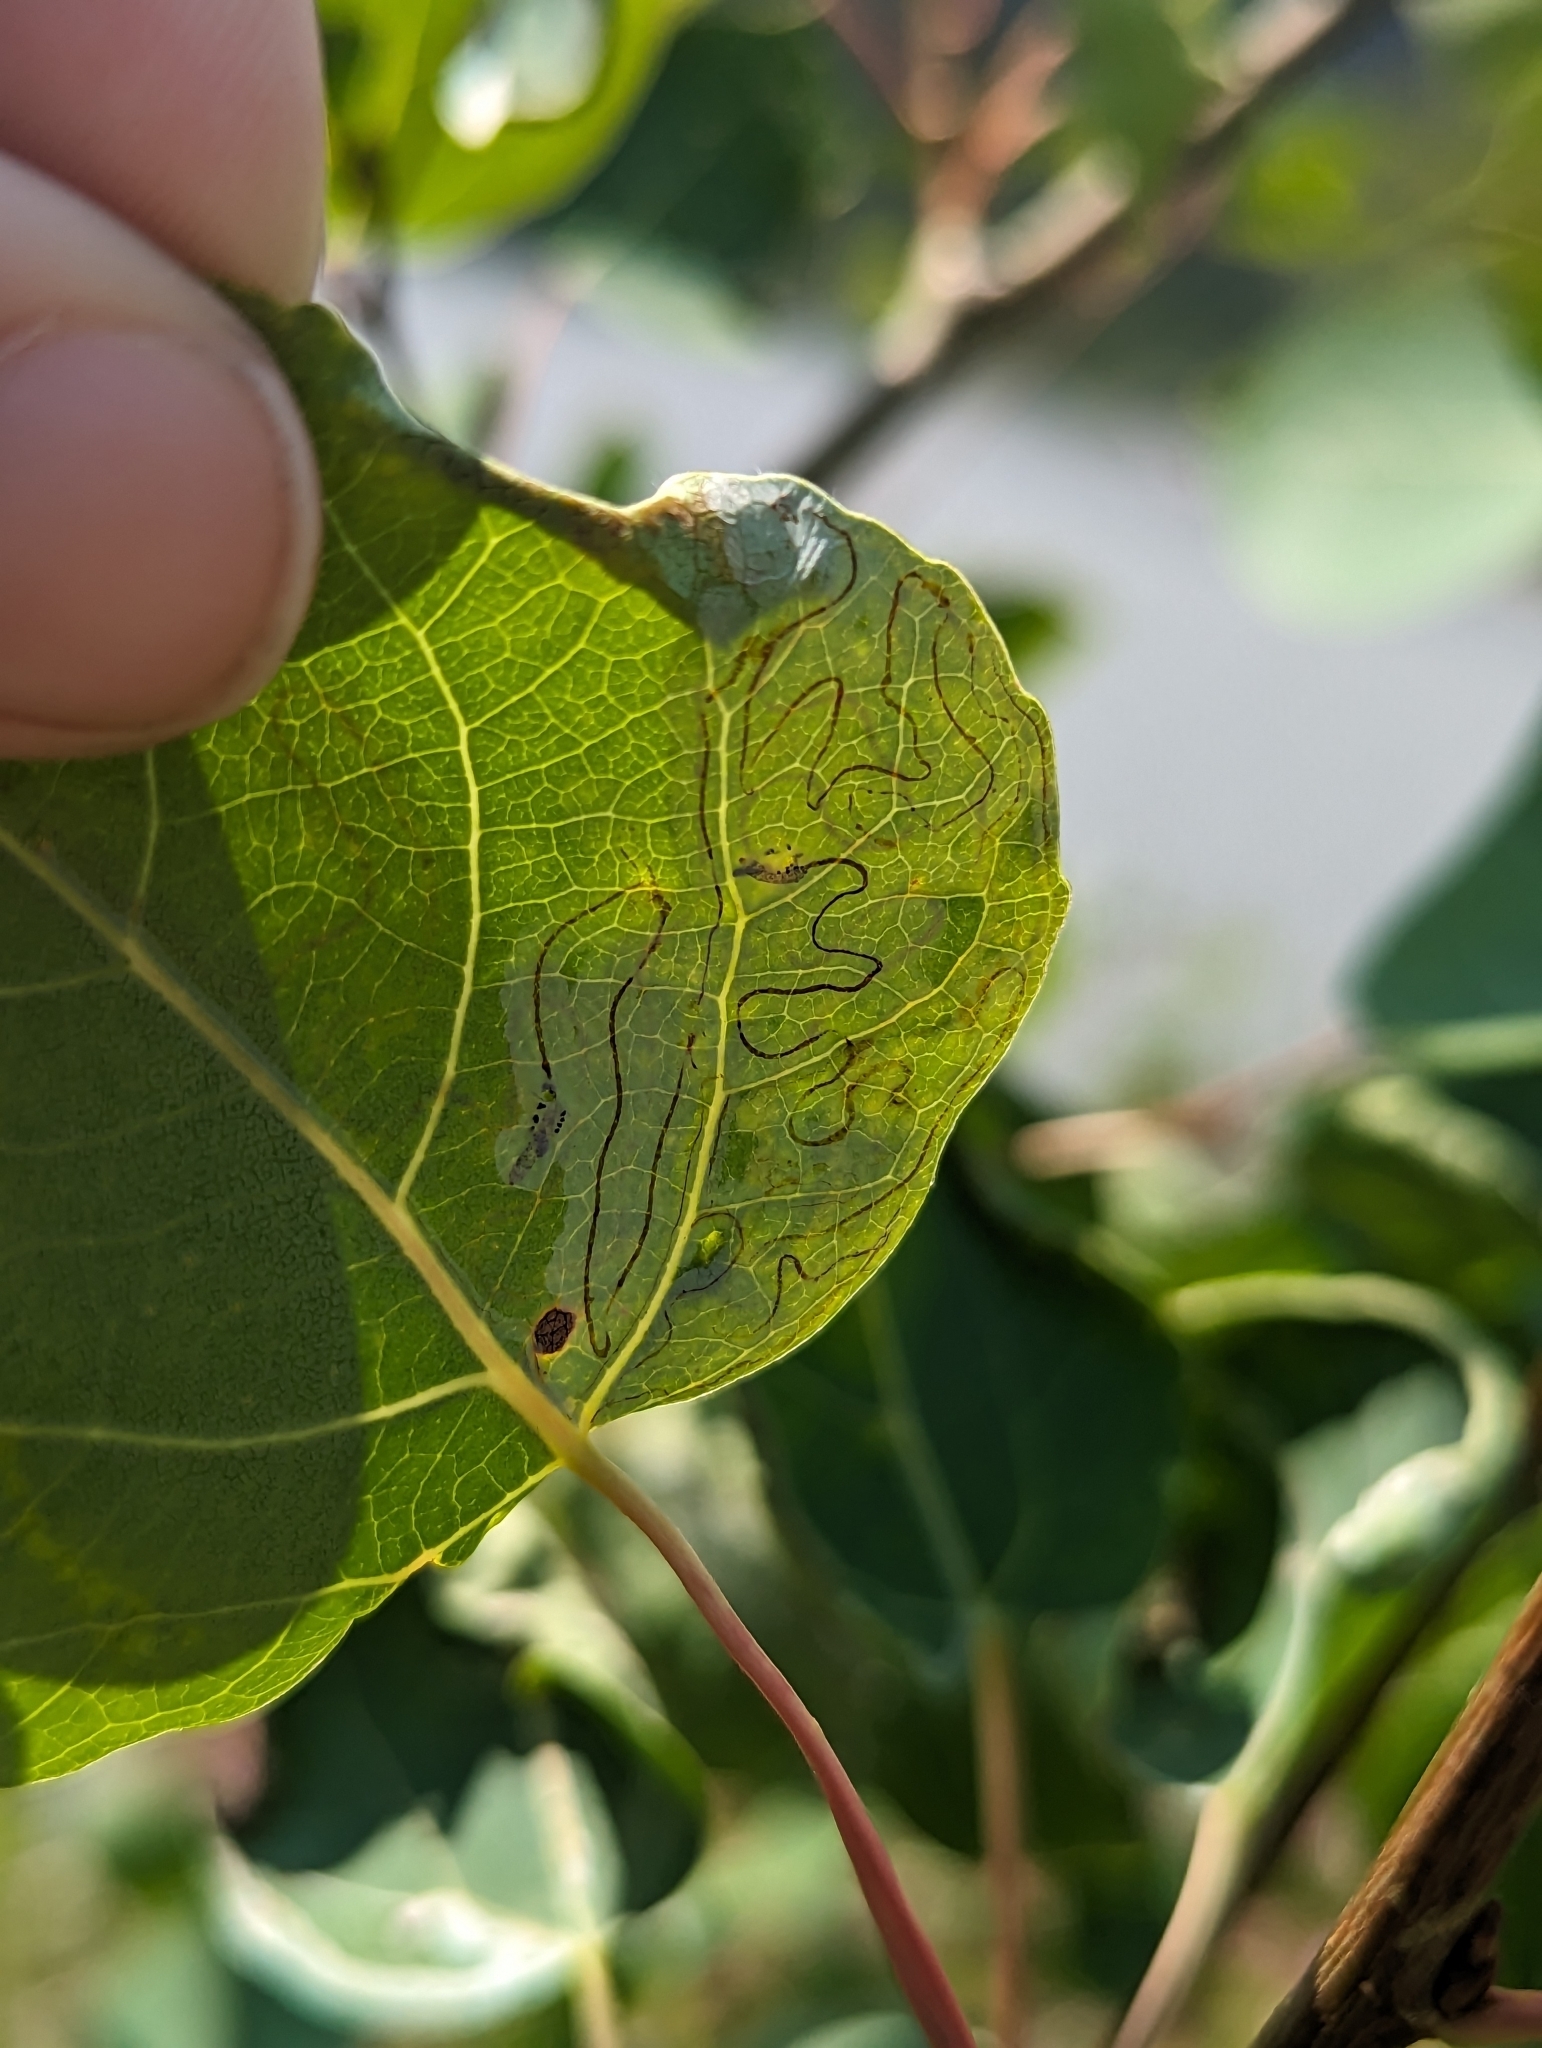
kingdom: Animalia
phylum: Arthropoda
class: Insecta
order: Lepidoptera
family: Gracillariidae
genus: Phyllocnistis
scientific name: Phyllocnistis populiella
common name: Aspen serpentine leafminer moth
